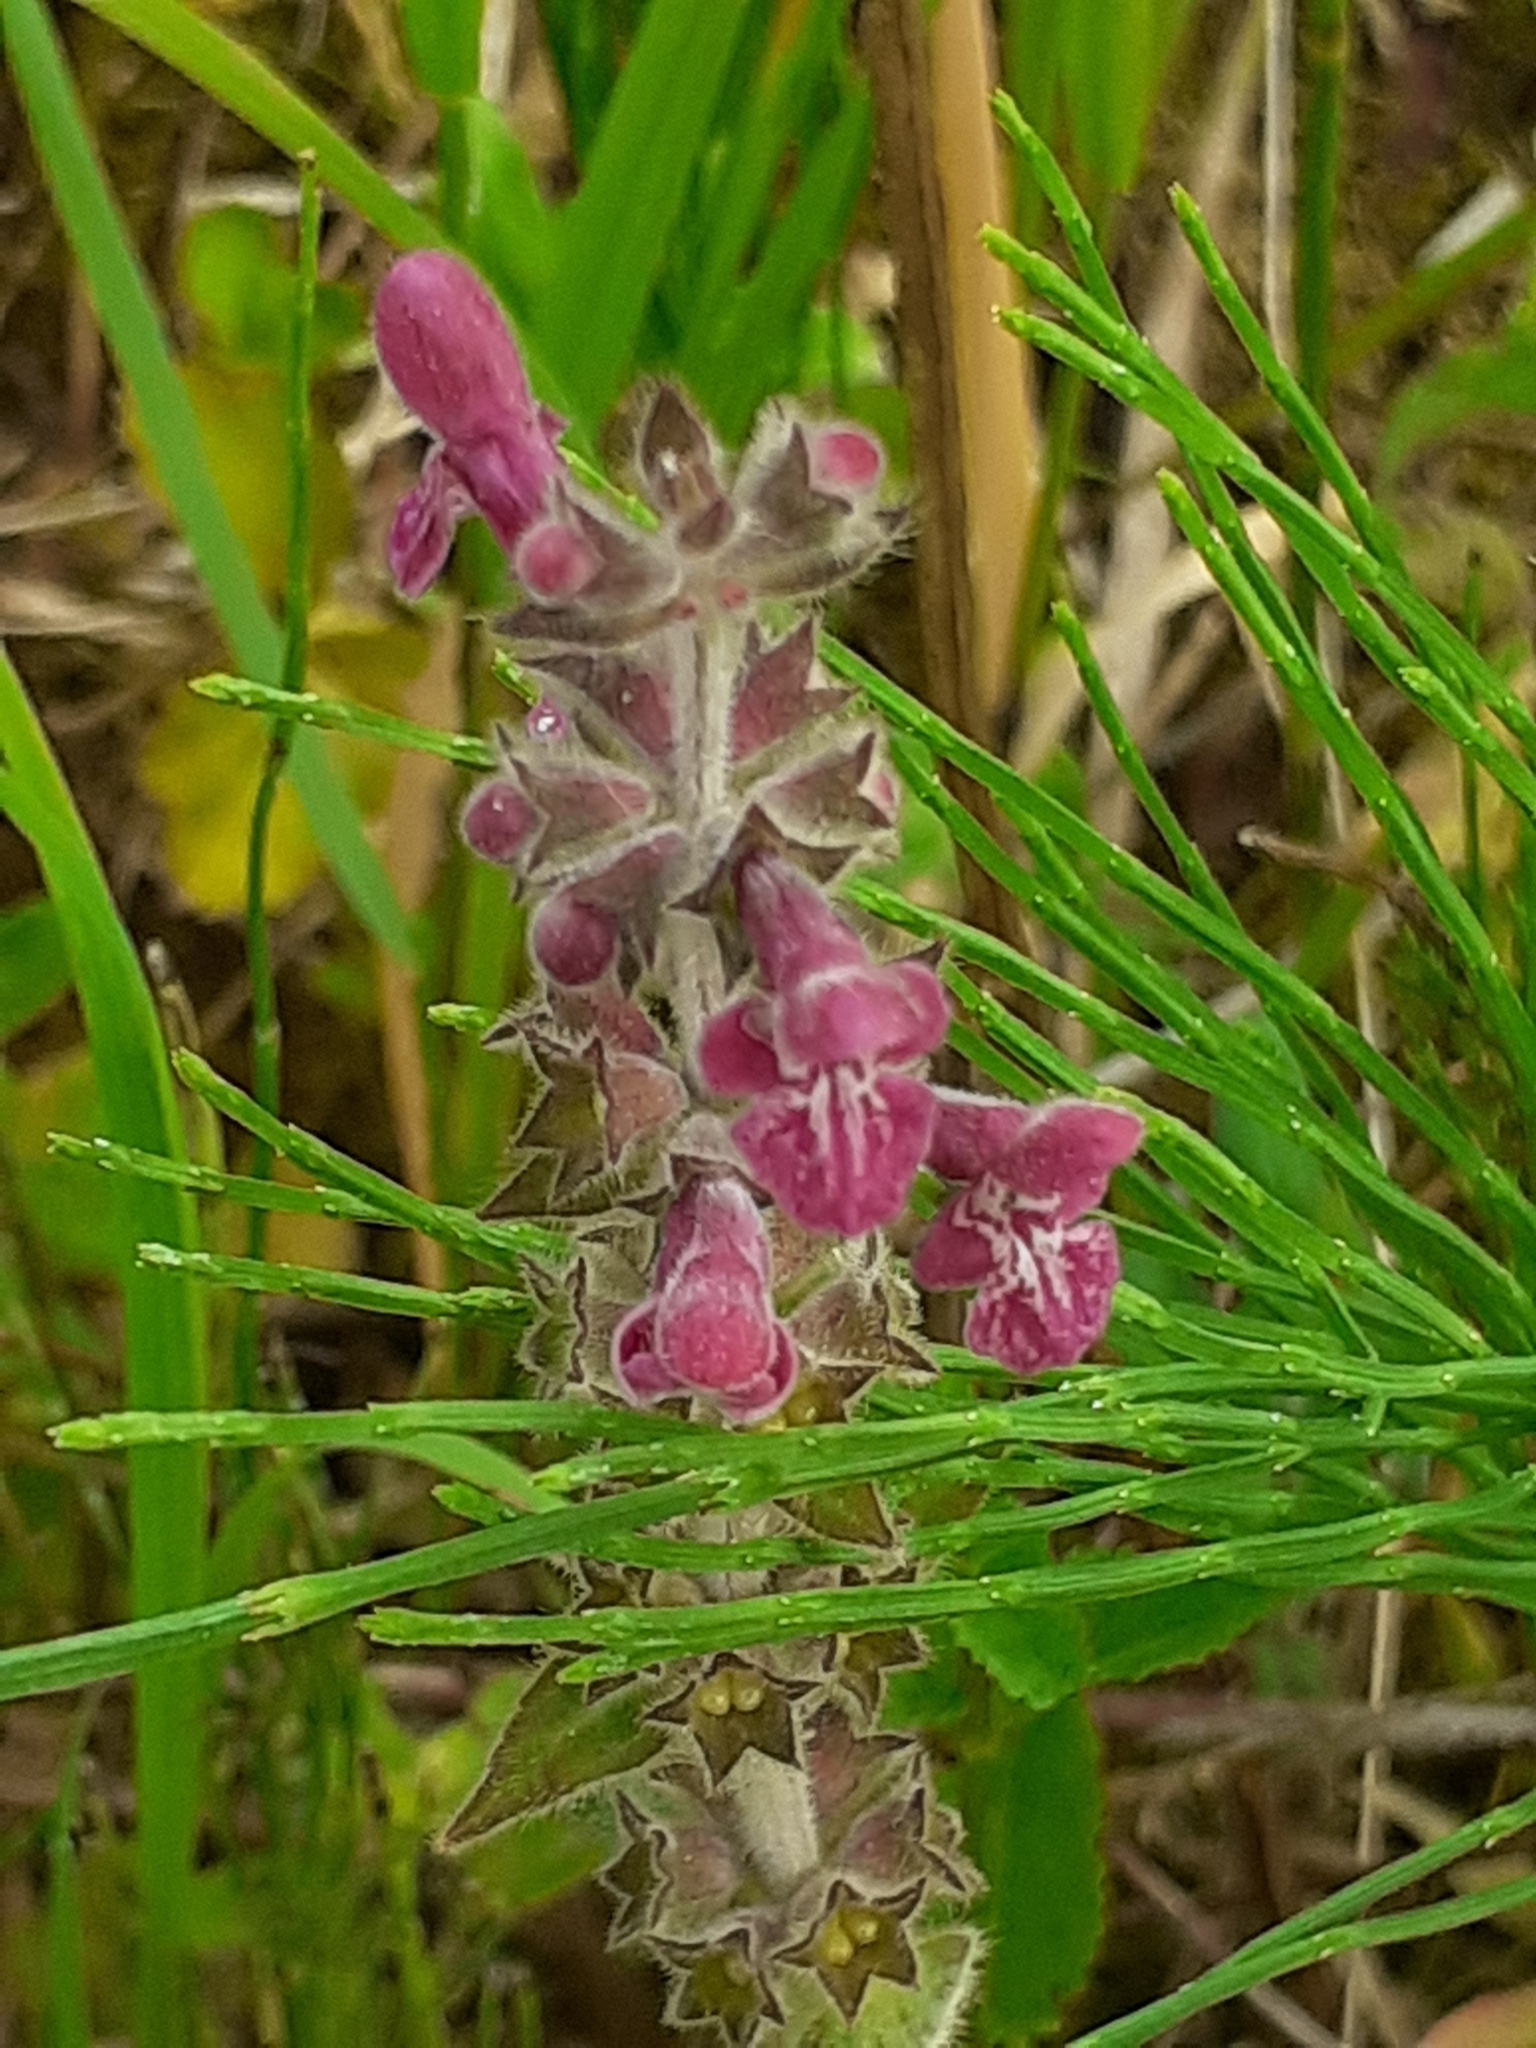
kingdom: Plantae
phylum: Tracheophyta
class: Magnoliopsida
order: Lamiales
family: Lamiaceae
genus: Stachys
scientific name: Stachys sylvatica
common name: Hedge woundwort
